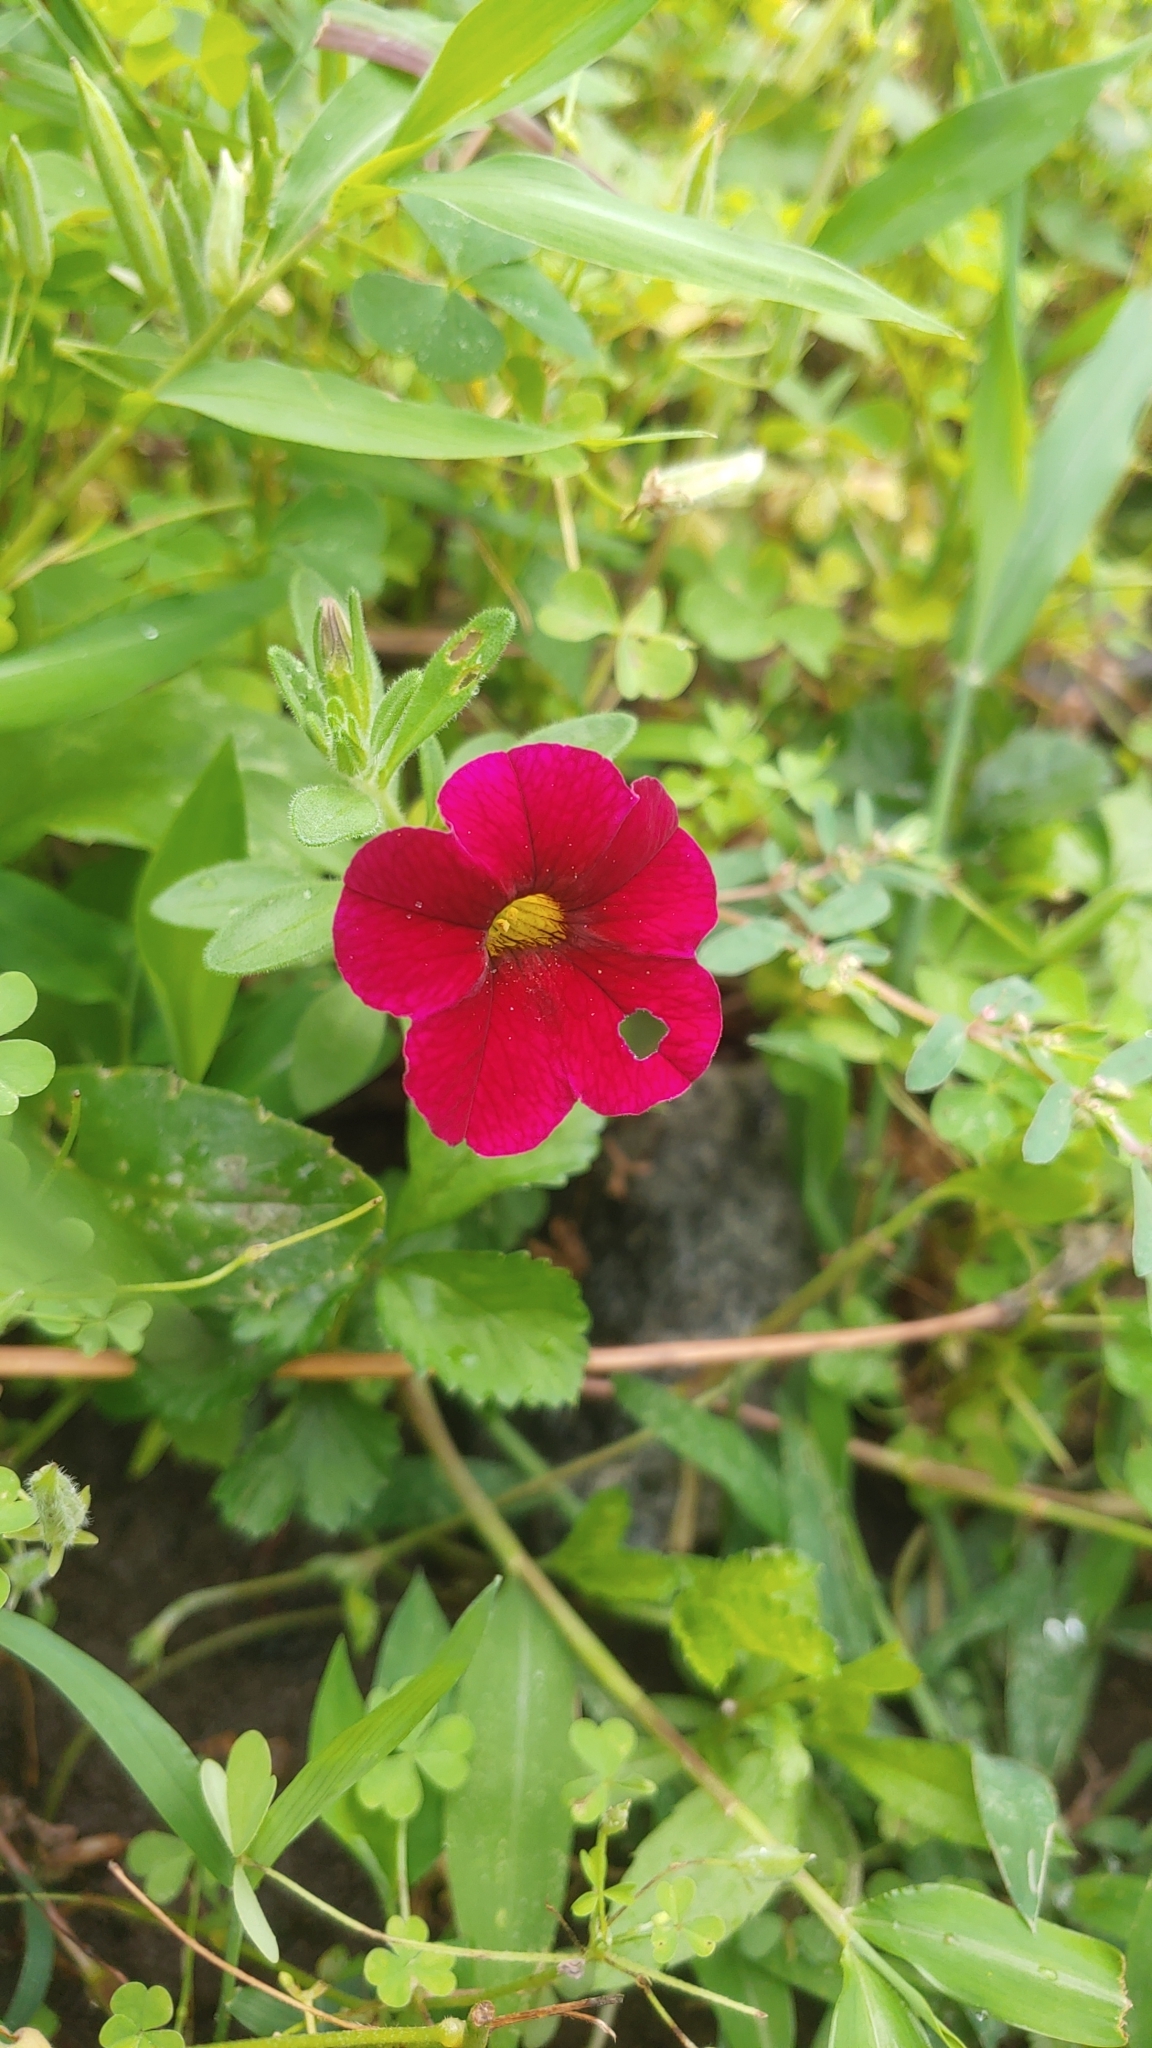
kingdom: Plantae
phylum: Tracheophyta
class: Magnoliopsida
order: Solanales
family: Solanaceae
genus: Petunia
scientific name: Petunia atkinsiana
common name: Petunia
